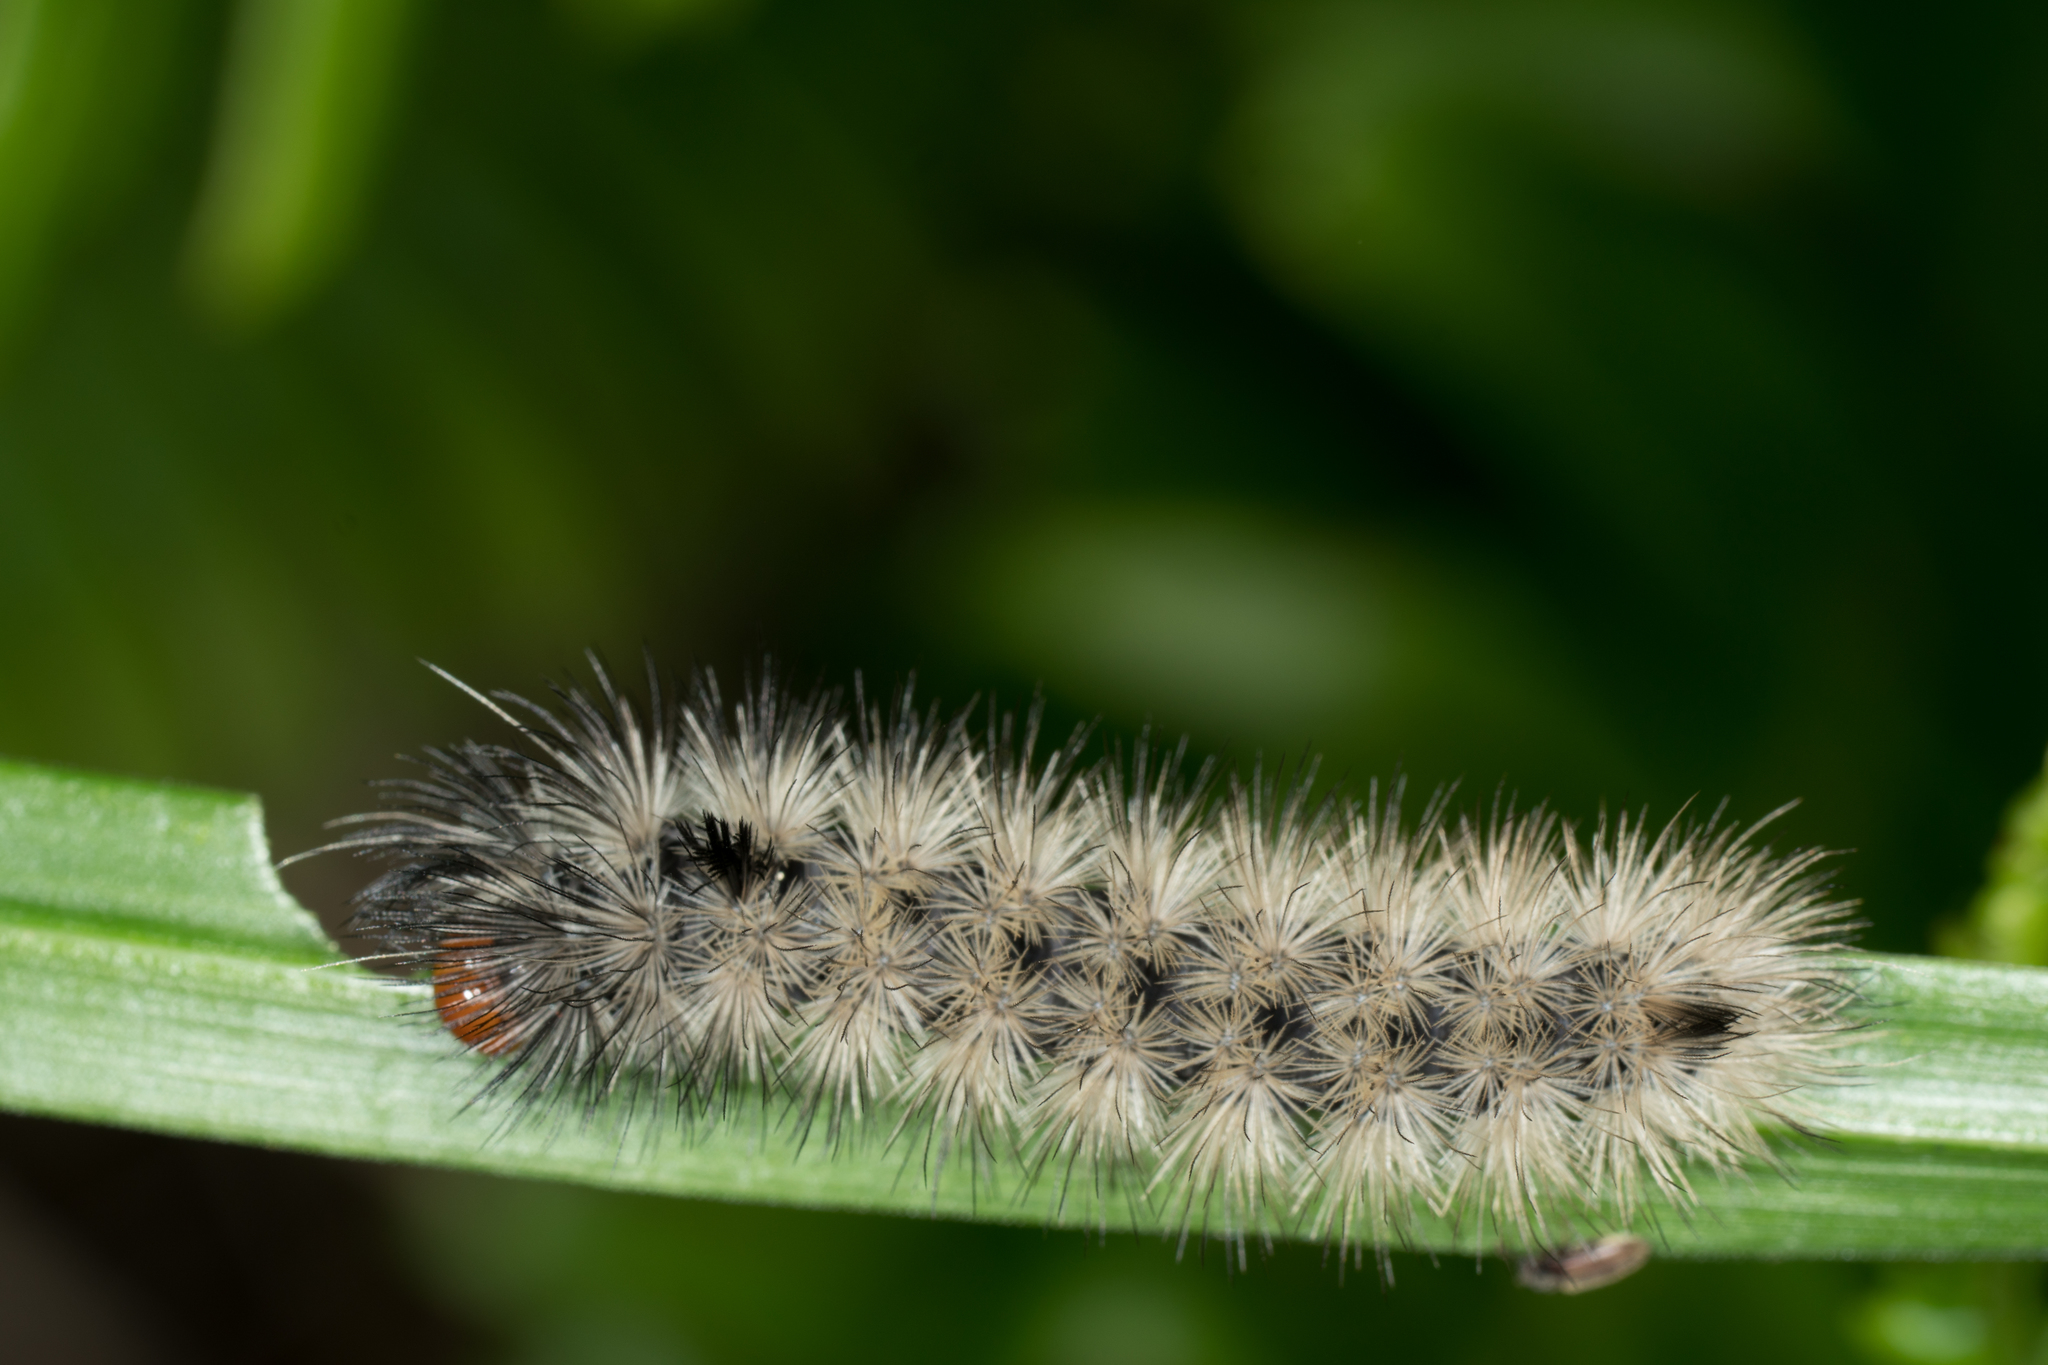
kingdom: Animalia
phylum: Arthropoda
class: Insecta
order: Lepidoptera
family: Erebidae
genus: Ctenucha
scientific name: Ctenucha rubroscapus
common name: Red-shouldered ctenucha
